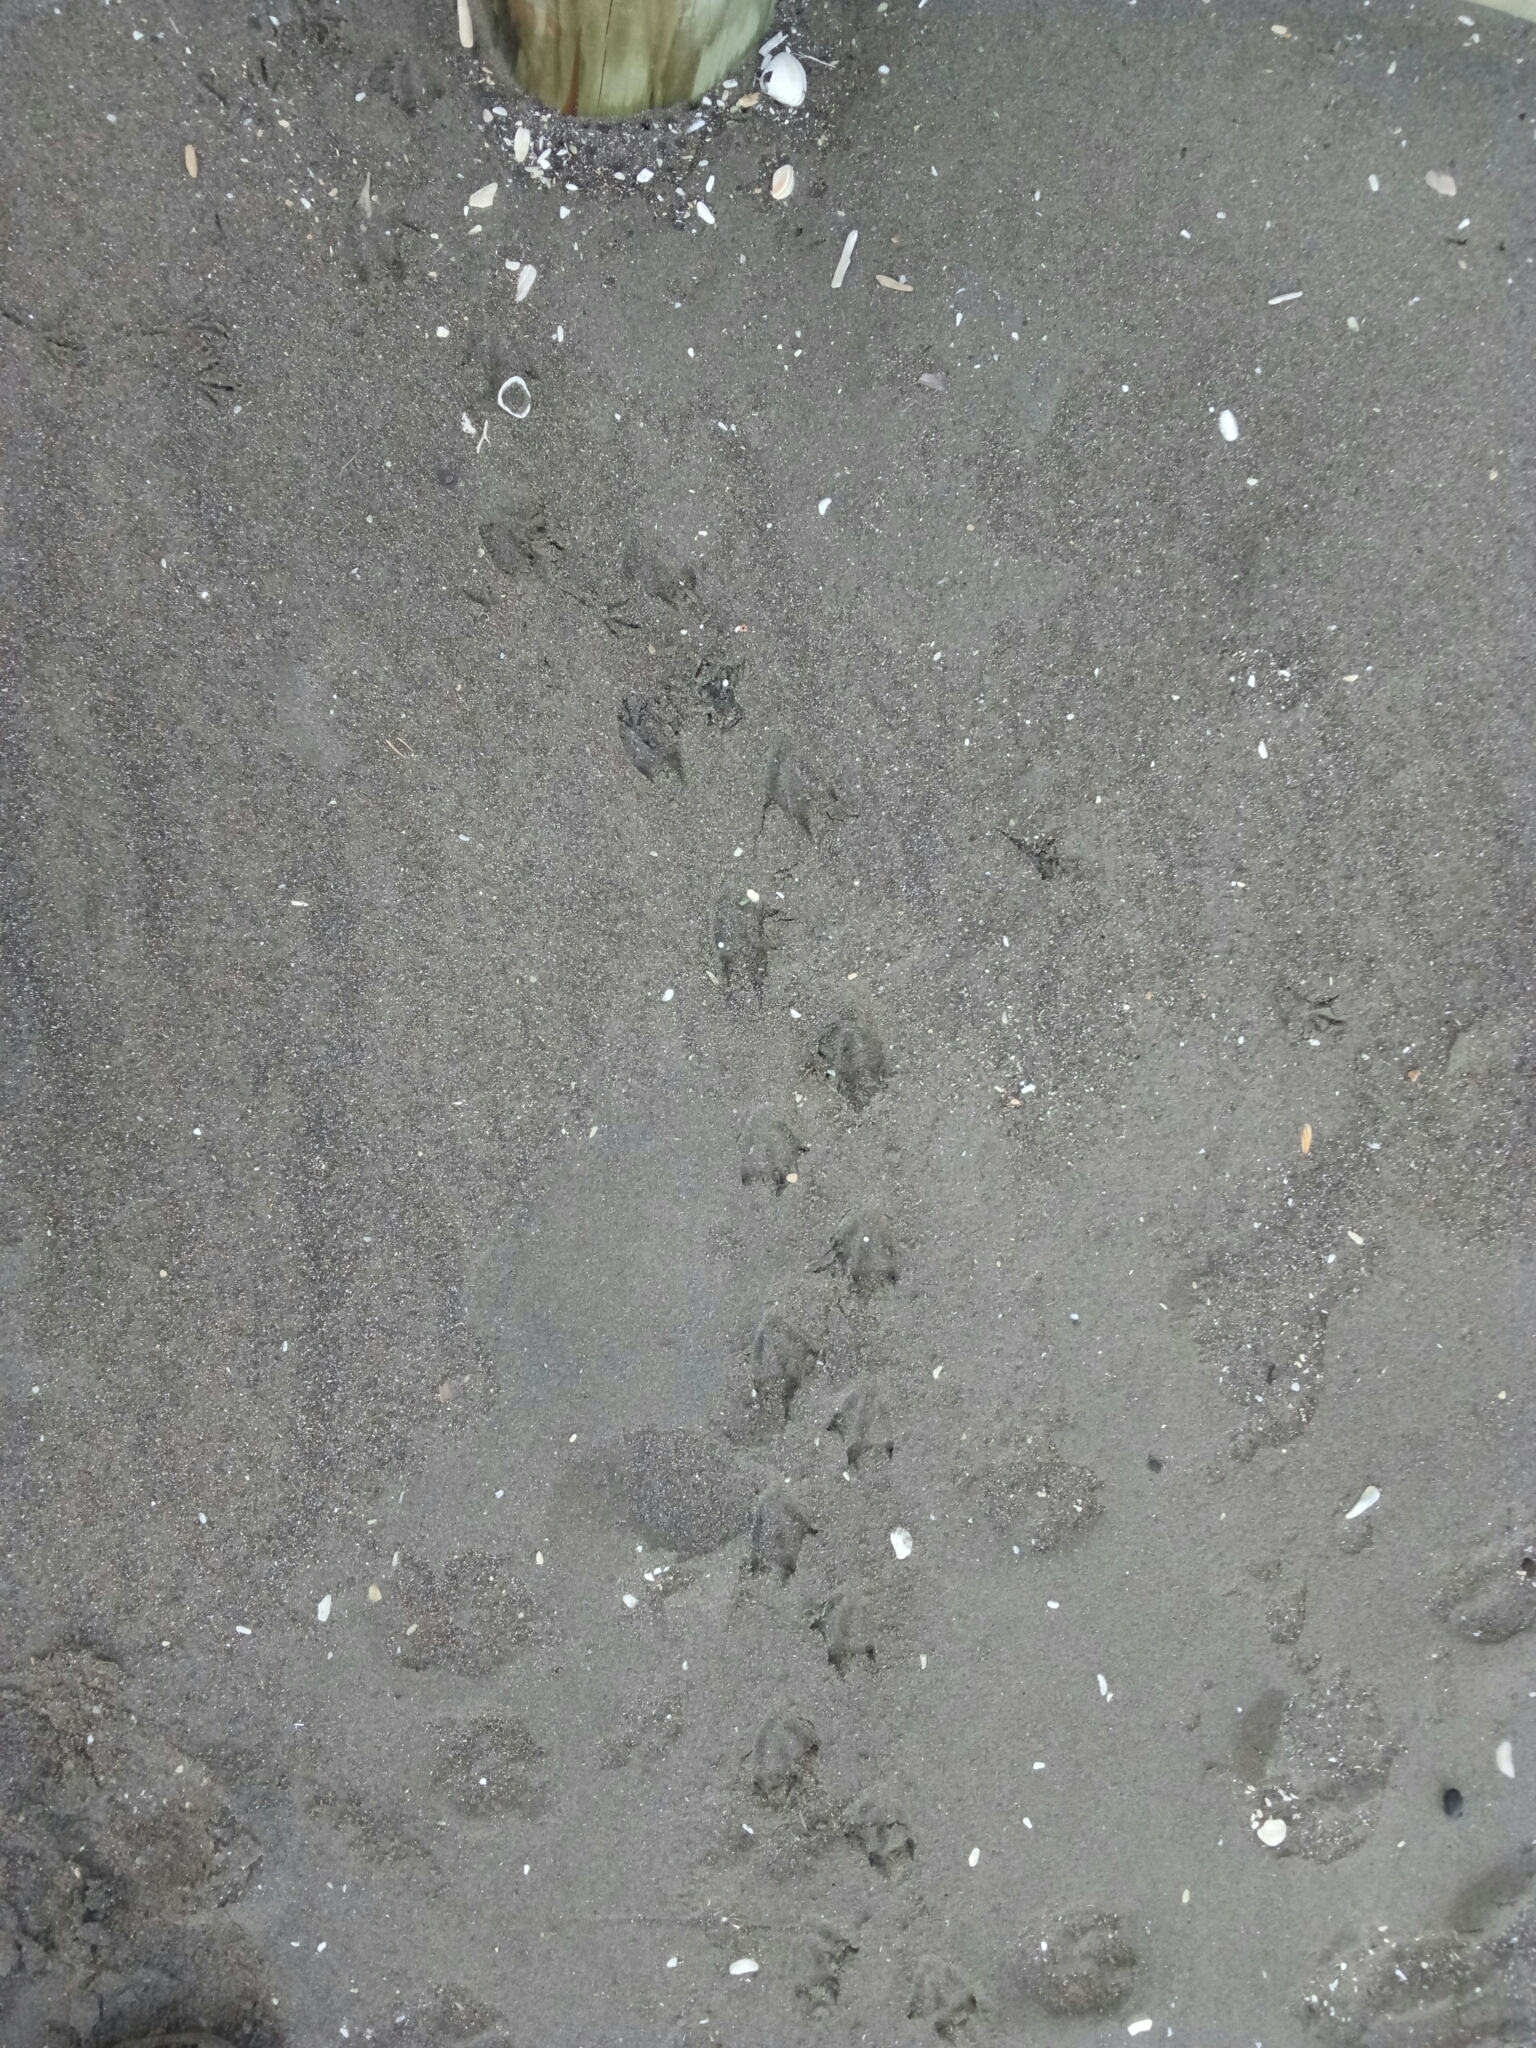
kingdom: Animalia
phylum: Chordata
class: Aves
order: Sphenisciformes
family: Spheniscidae
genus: Eudyptula
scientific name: Eudyptula minor
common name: Little penguin
